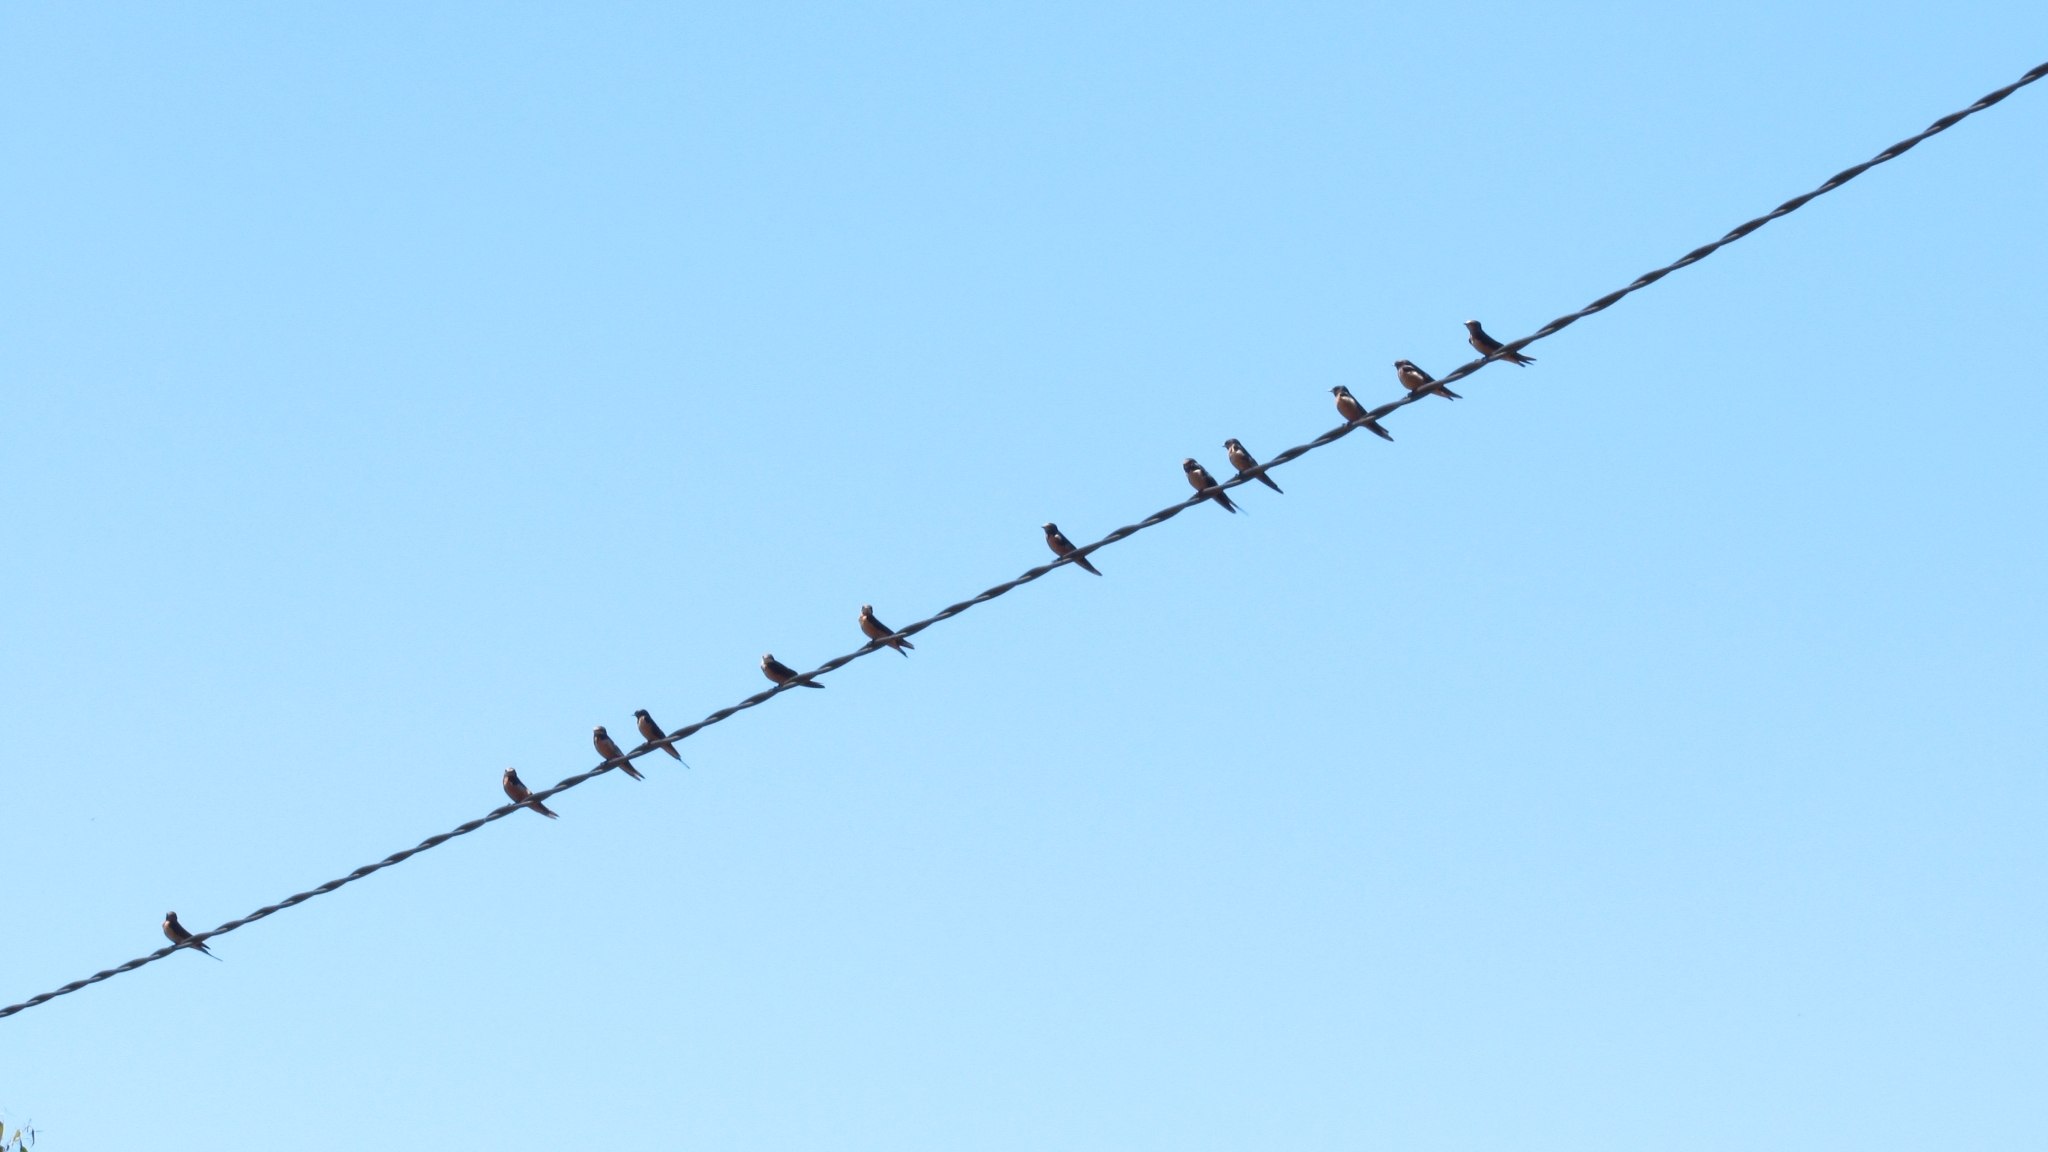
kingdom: Animalia
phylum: Chordata
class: Aves
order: Passeriformes
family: Hirundinidae
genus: Hirundo
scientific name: Hirundo rustica
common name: Barn swallow
